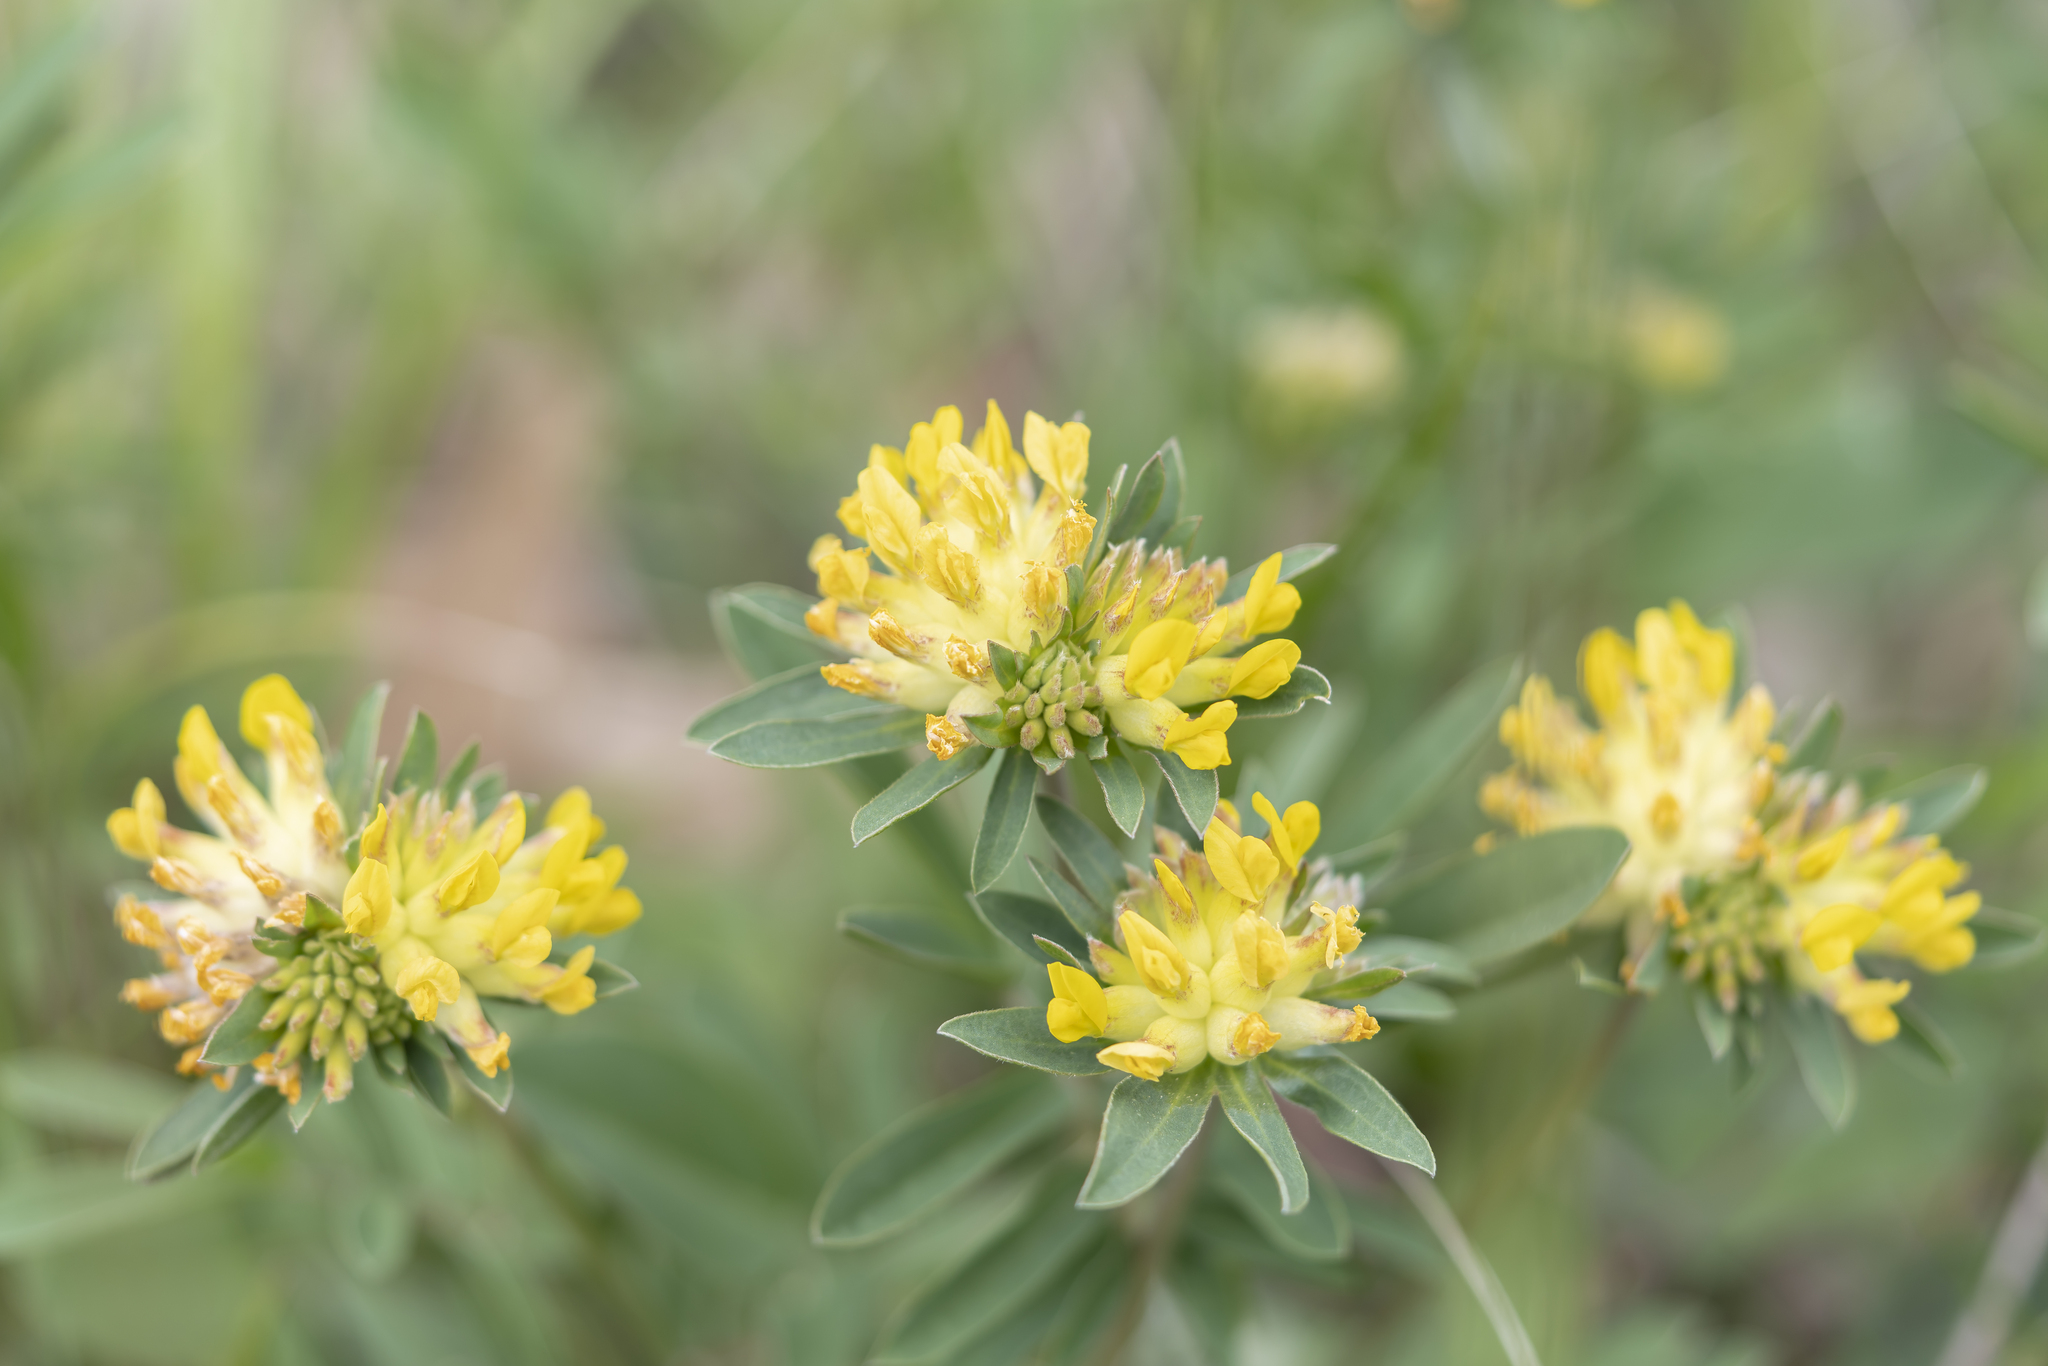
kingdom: Plantae
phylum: Tracheophyta
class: Magnoliopsida
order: Fabales
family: Fabaceae
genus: Anthyllis
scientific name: Anthyllis vulneraria
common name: Kidney vetch
